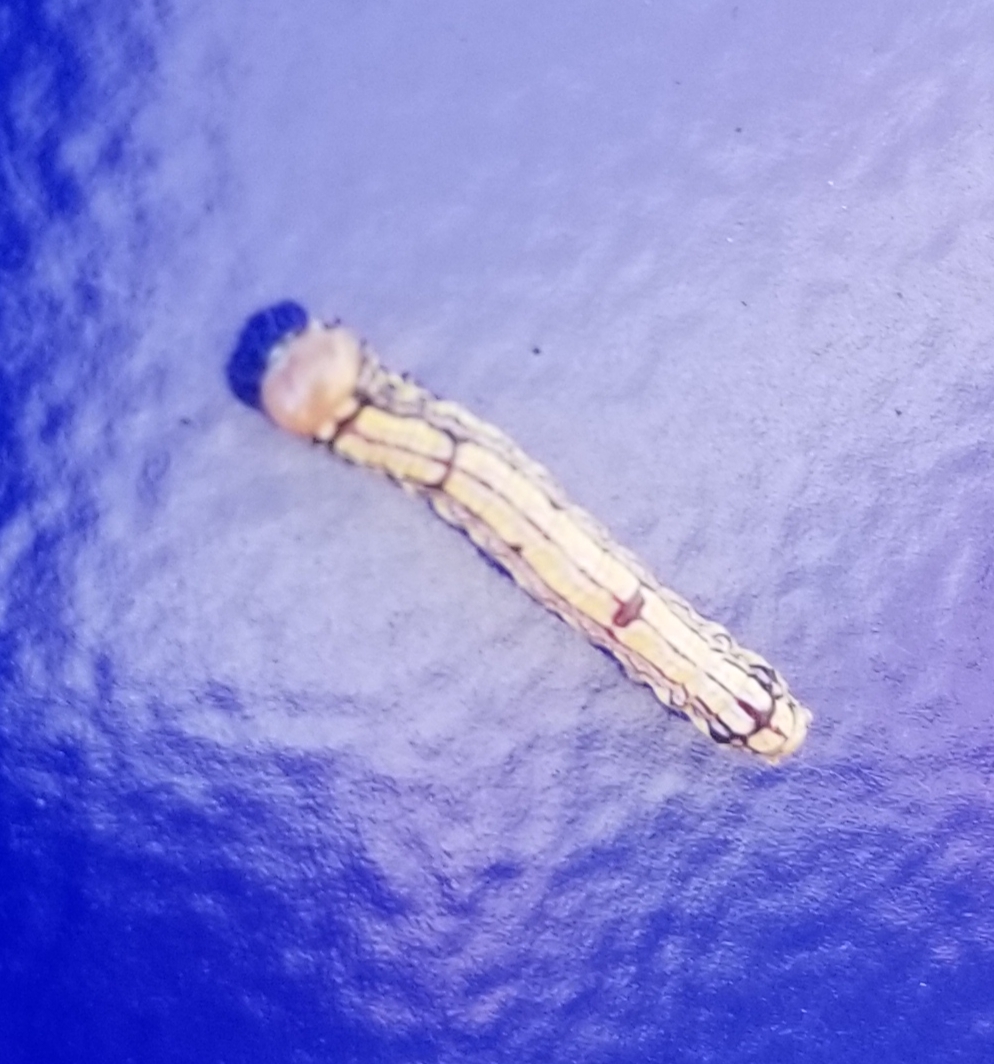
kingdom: Animalia
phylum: Arthropoda
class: Insecta
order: Lepidoptera
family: Notodontidae
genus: Phryganidia
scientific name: Phryganidia californica
